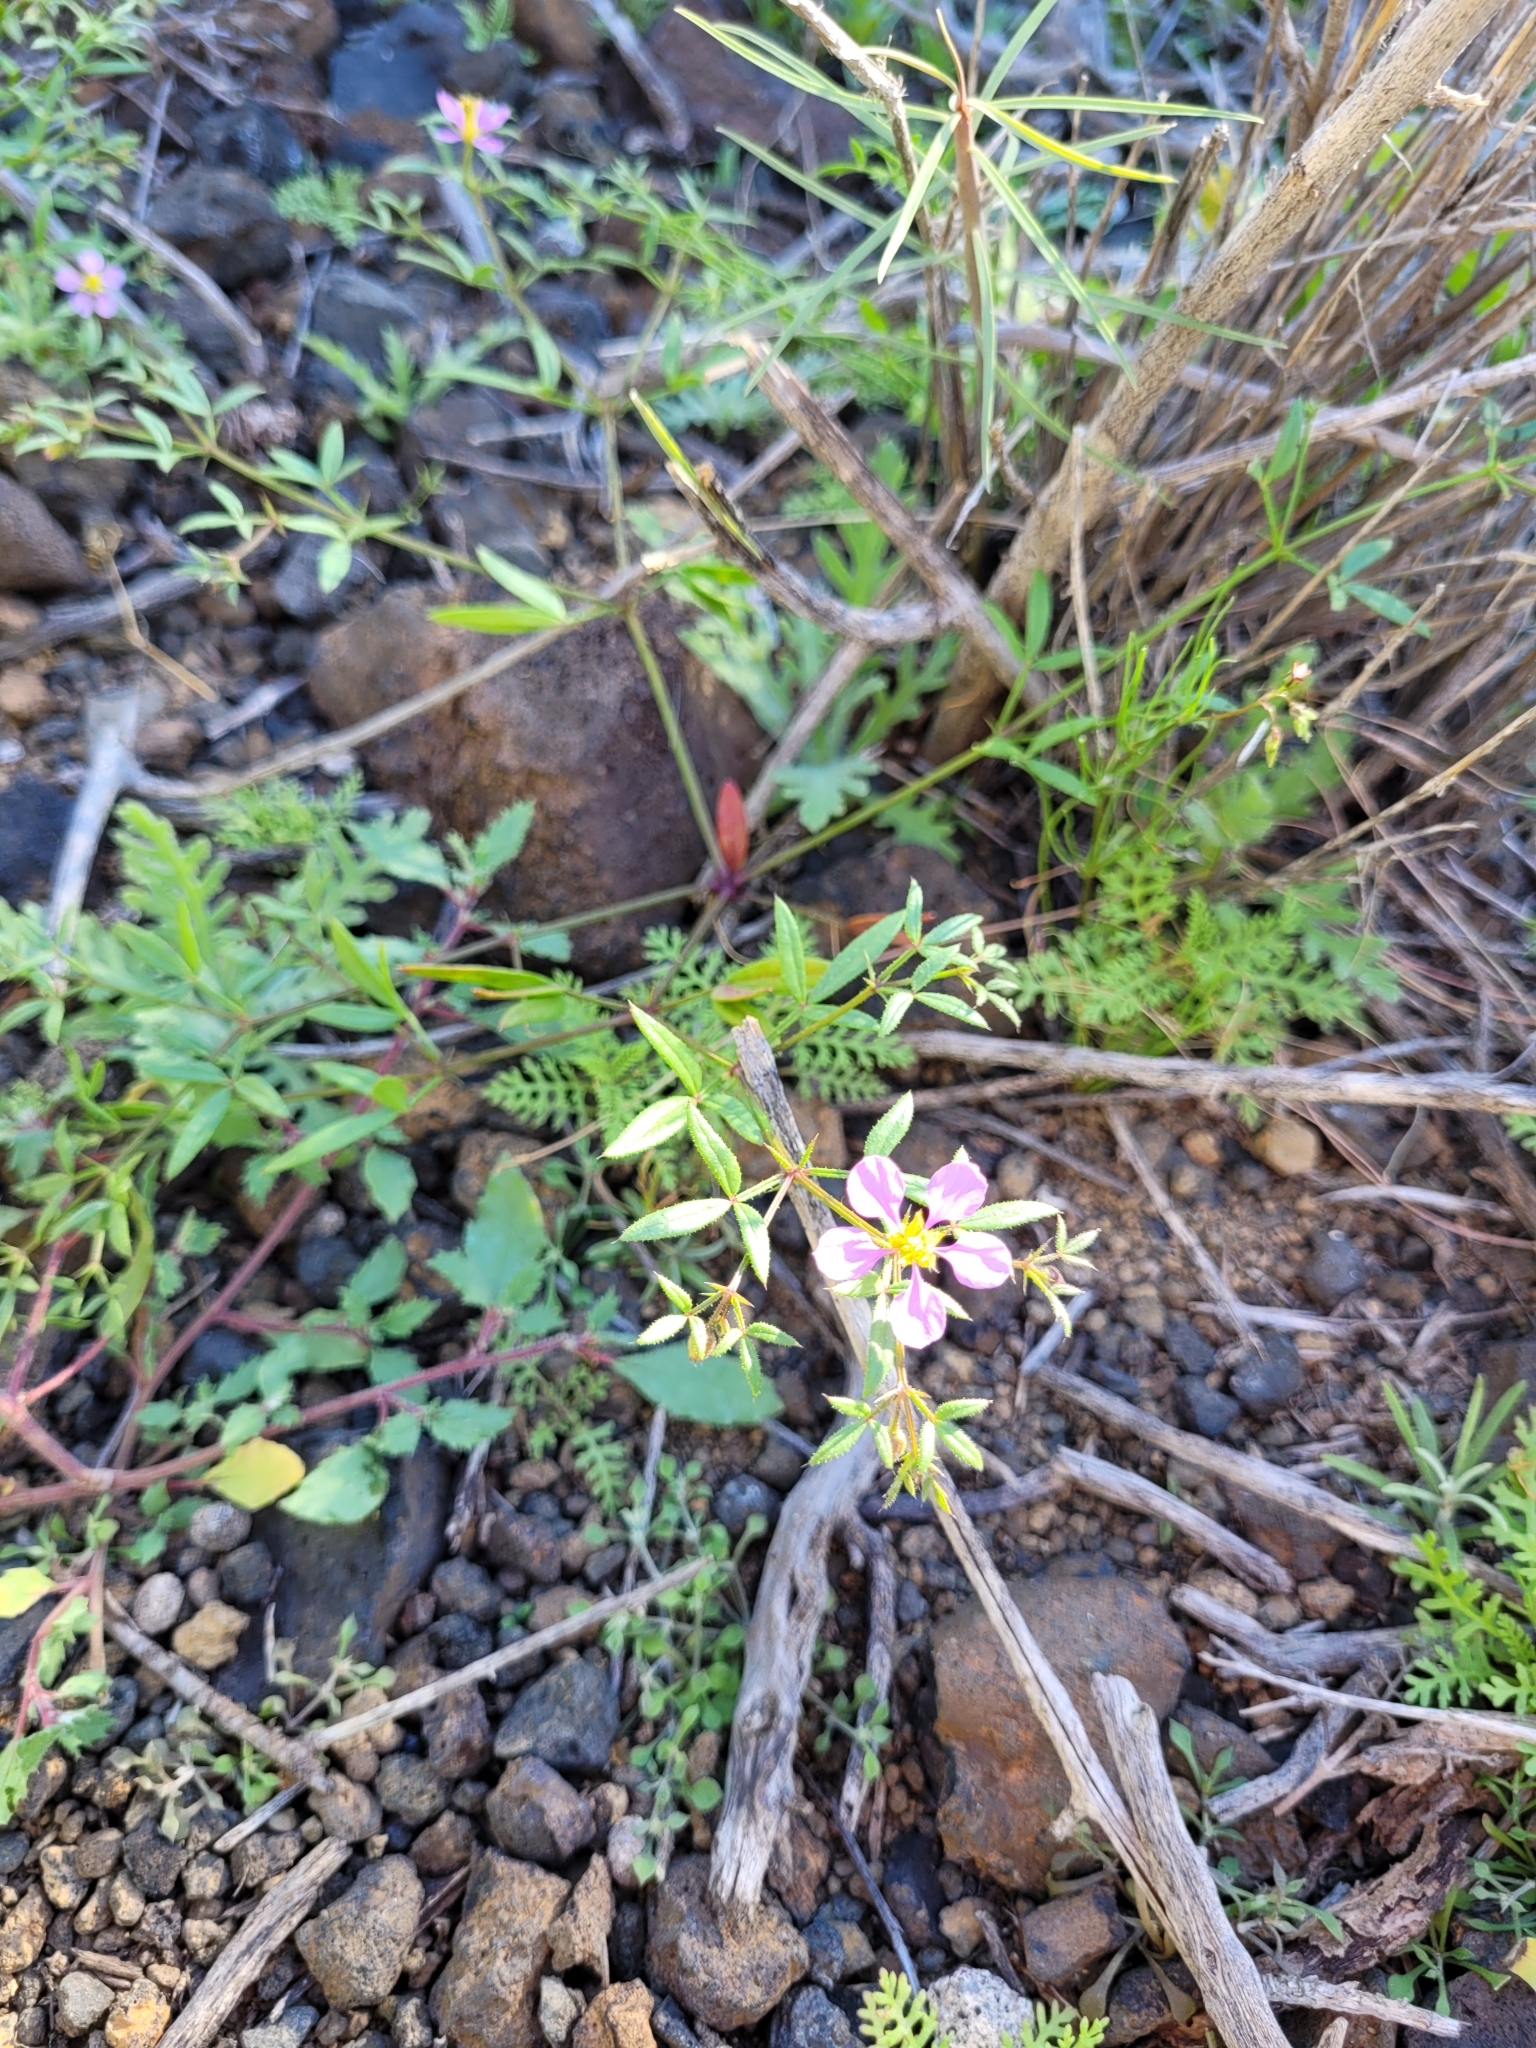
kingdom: Plantae
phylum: Tracheophyta
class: Magnoliopsida
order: Zygophyllales
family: Zygophyllaceae
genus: Fagonia
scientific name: Fagonia cretica
